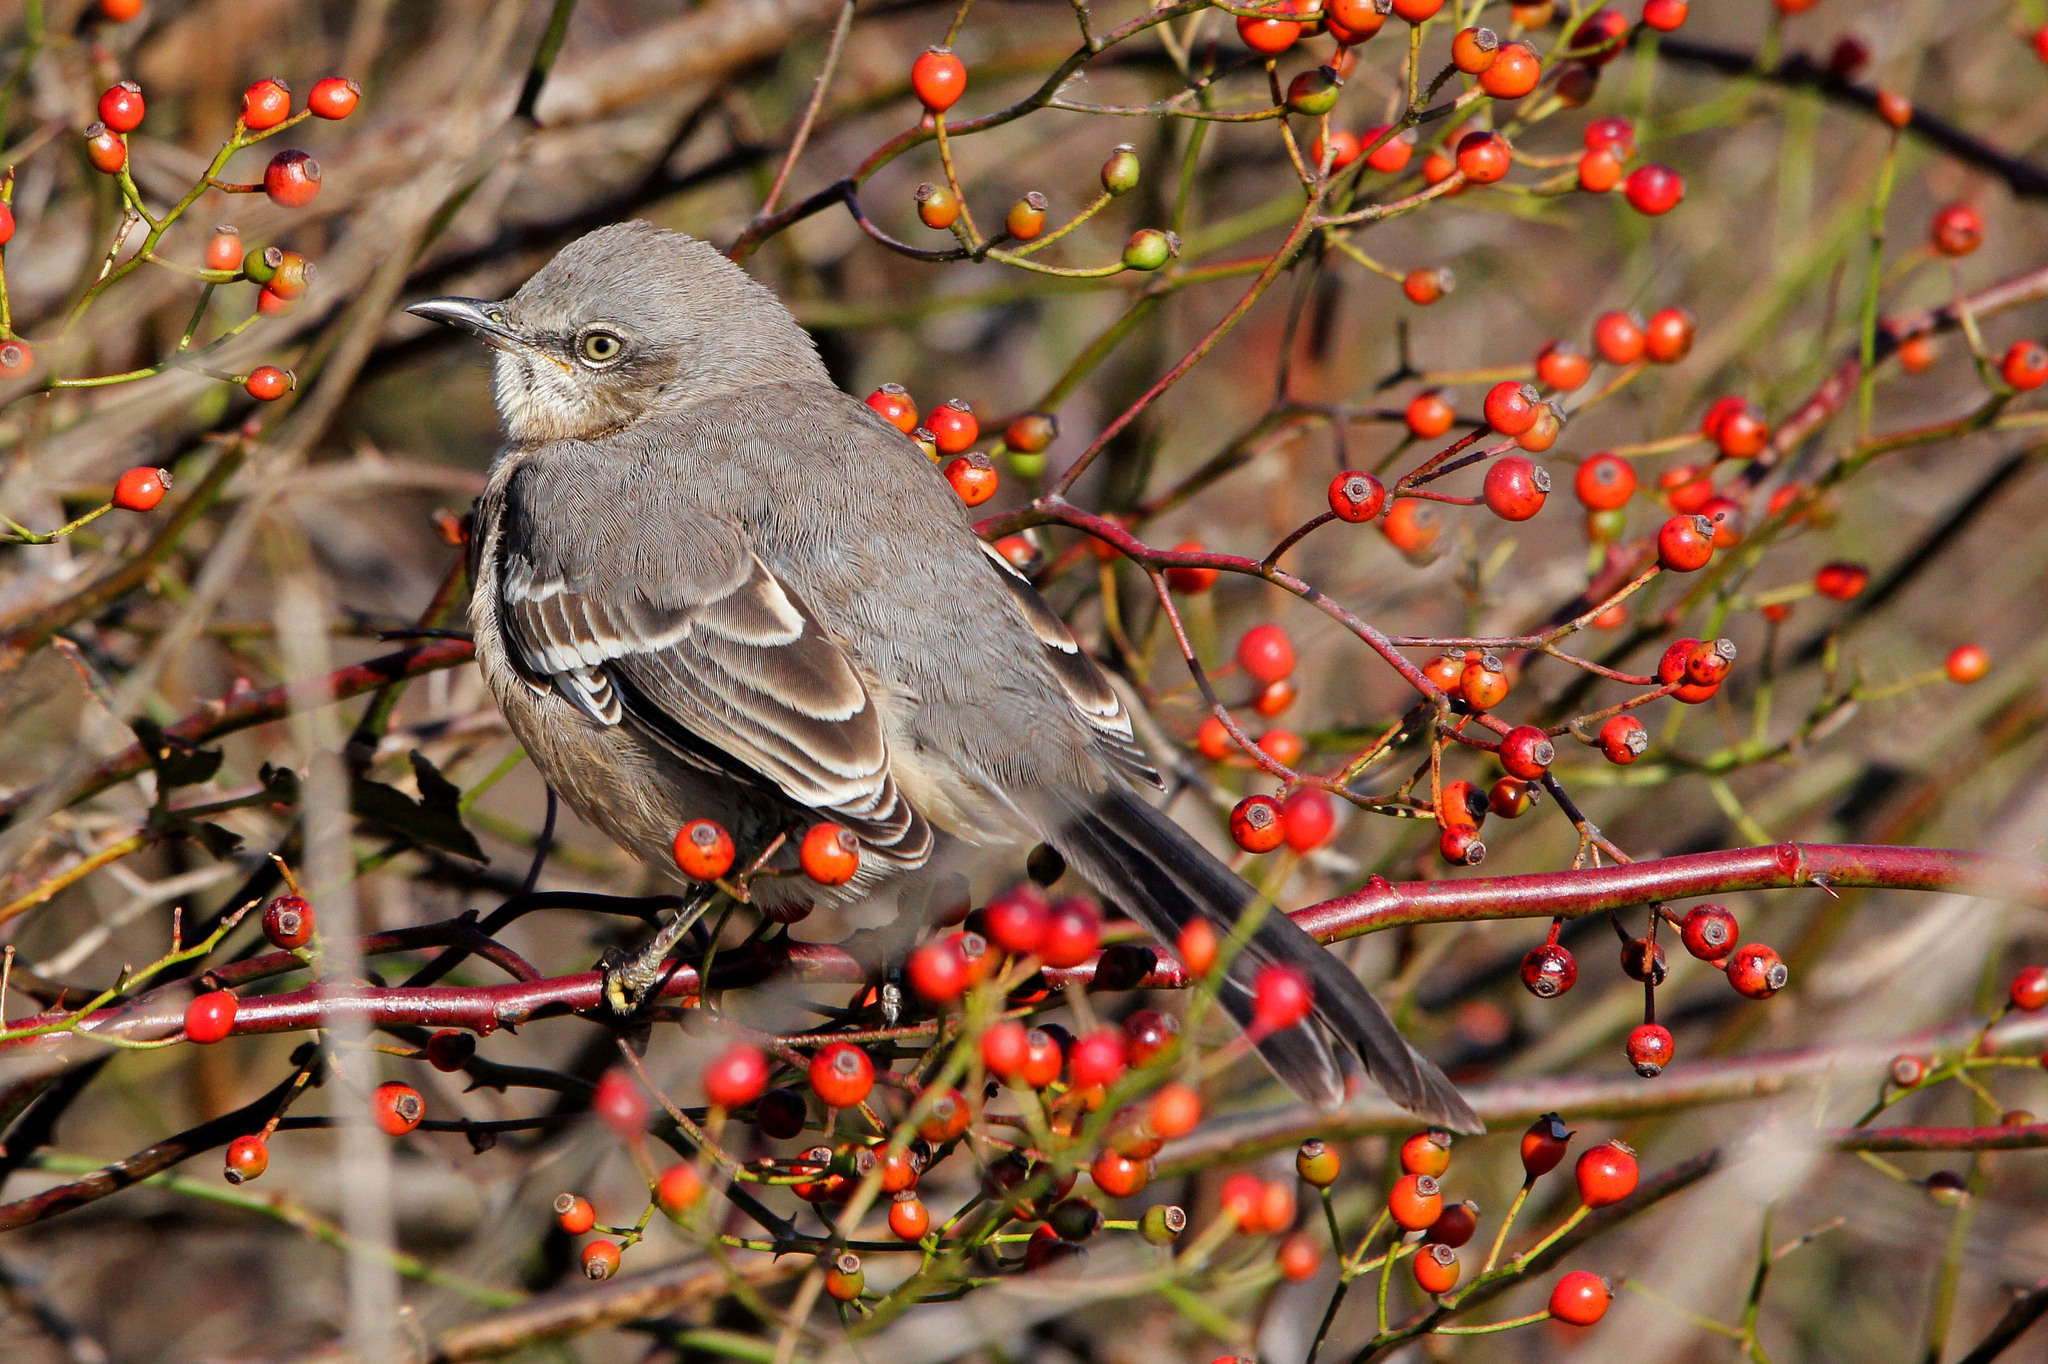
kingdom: Animalia
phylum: Chordata
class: Aves
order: Passeriformes
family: Mimidae
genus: Mimus
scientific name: Mimus polyglottos
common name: Northern mockingbird
